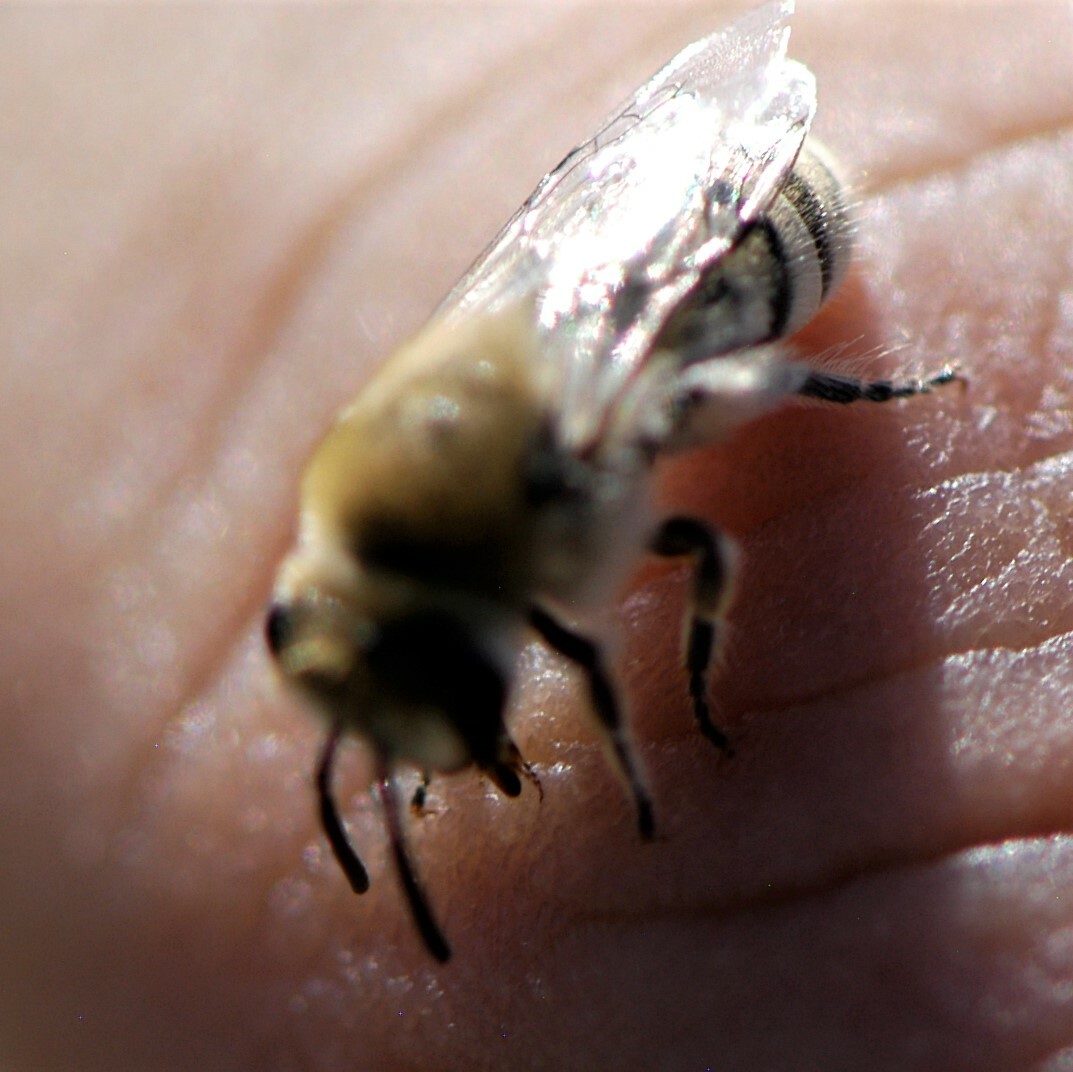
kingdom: Animalia
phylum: Arthropoda
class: Insecta
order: Hymenoptera
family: Colletidae
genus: Colletes
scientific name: Colletes
